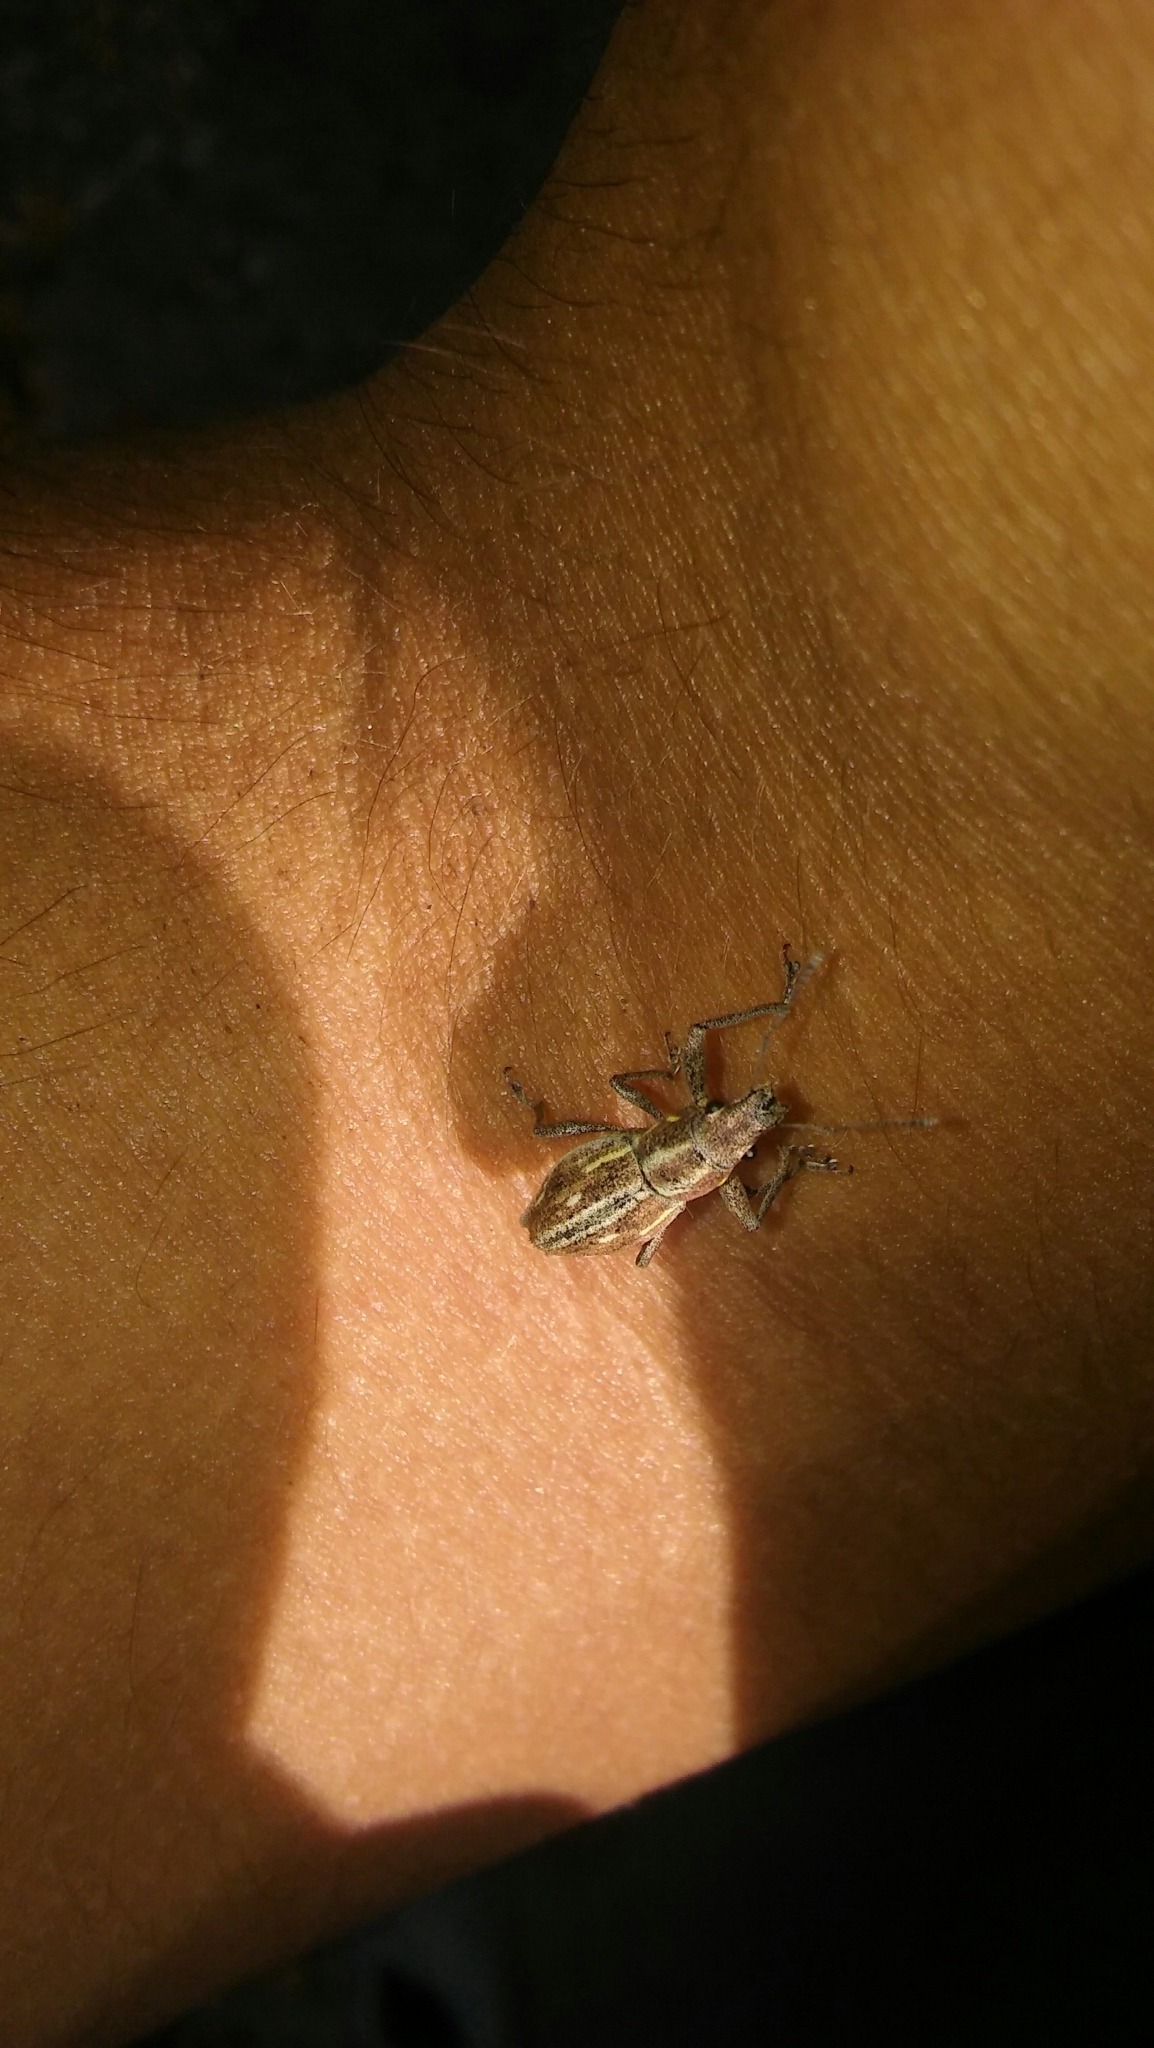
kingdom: Animalia
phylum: Arthropoda
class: Insecta
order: Coleoptera
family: Curculionidae
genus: Naupactus
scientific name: Naupactus xanthographus
